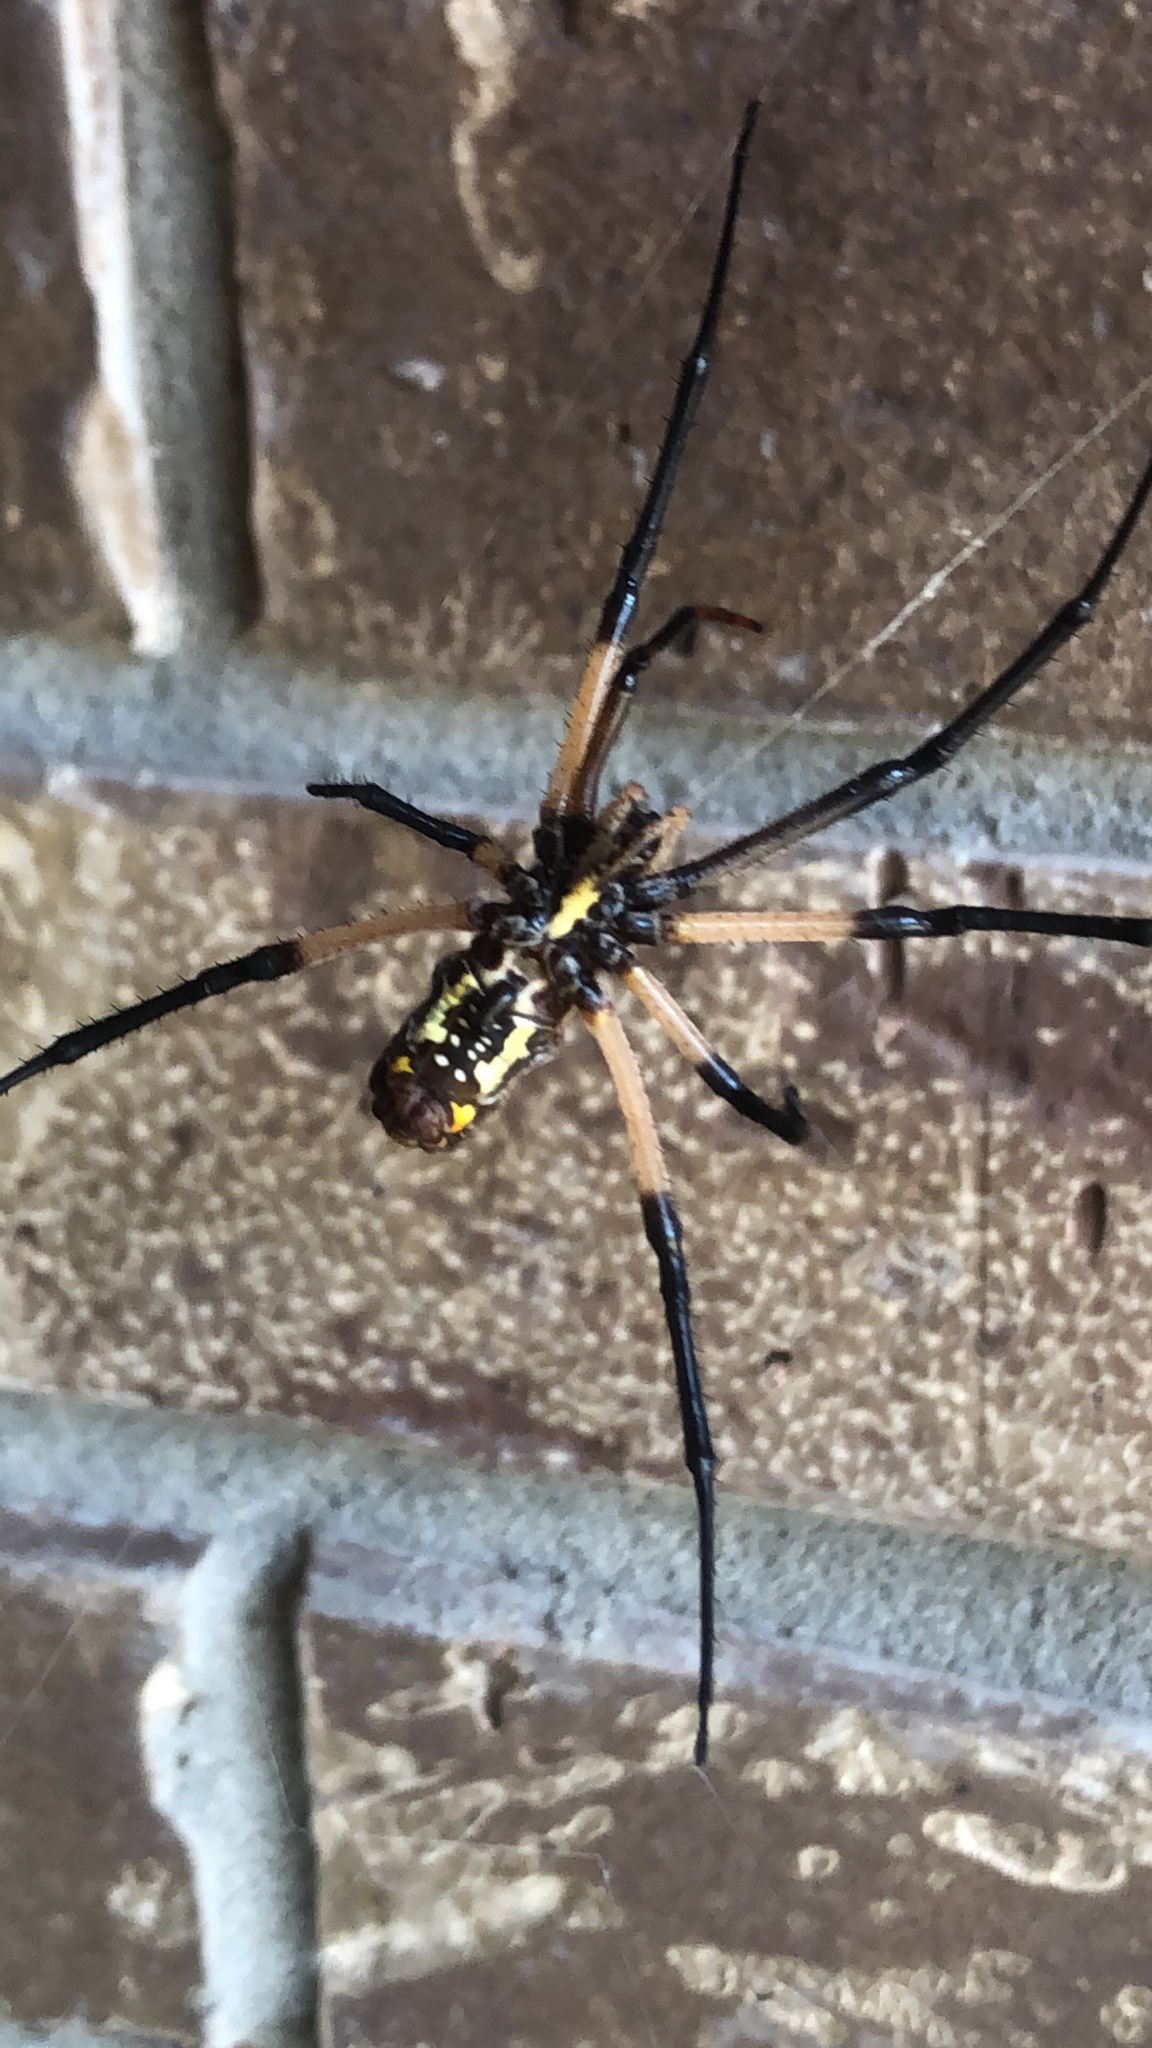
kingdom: Animalia
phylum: Arthropoda
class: Arachnida
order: Araneae
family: Araneidae
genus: Argiope
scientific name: Argiope aurantia
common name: Orb weavers
